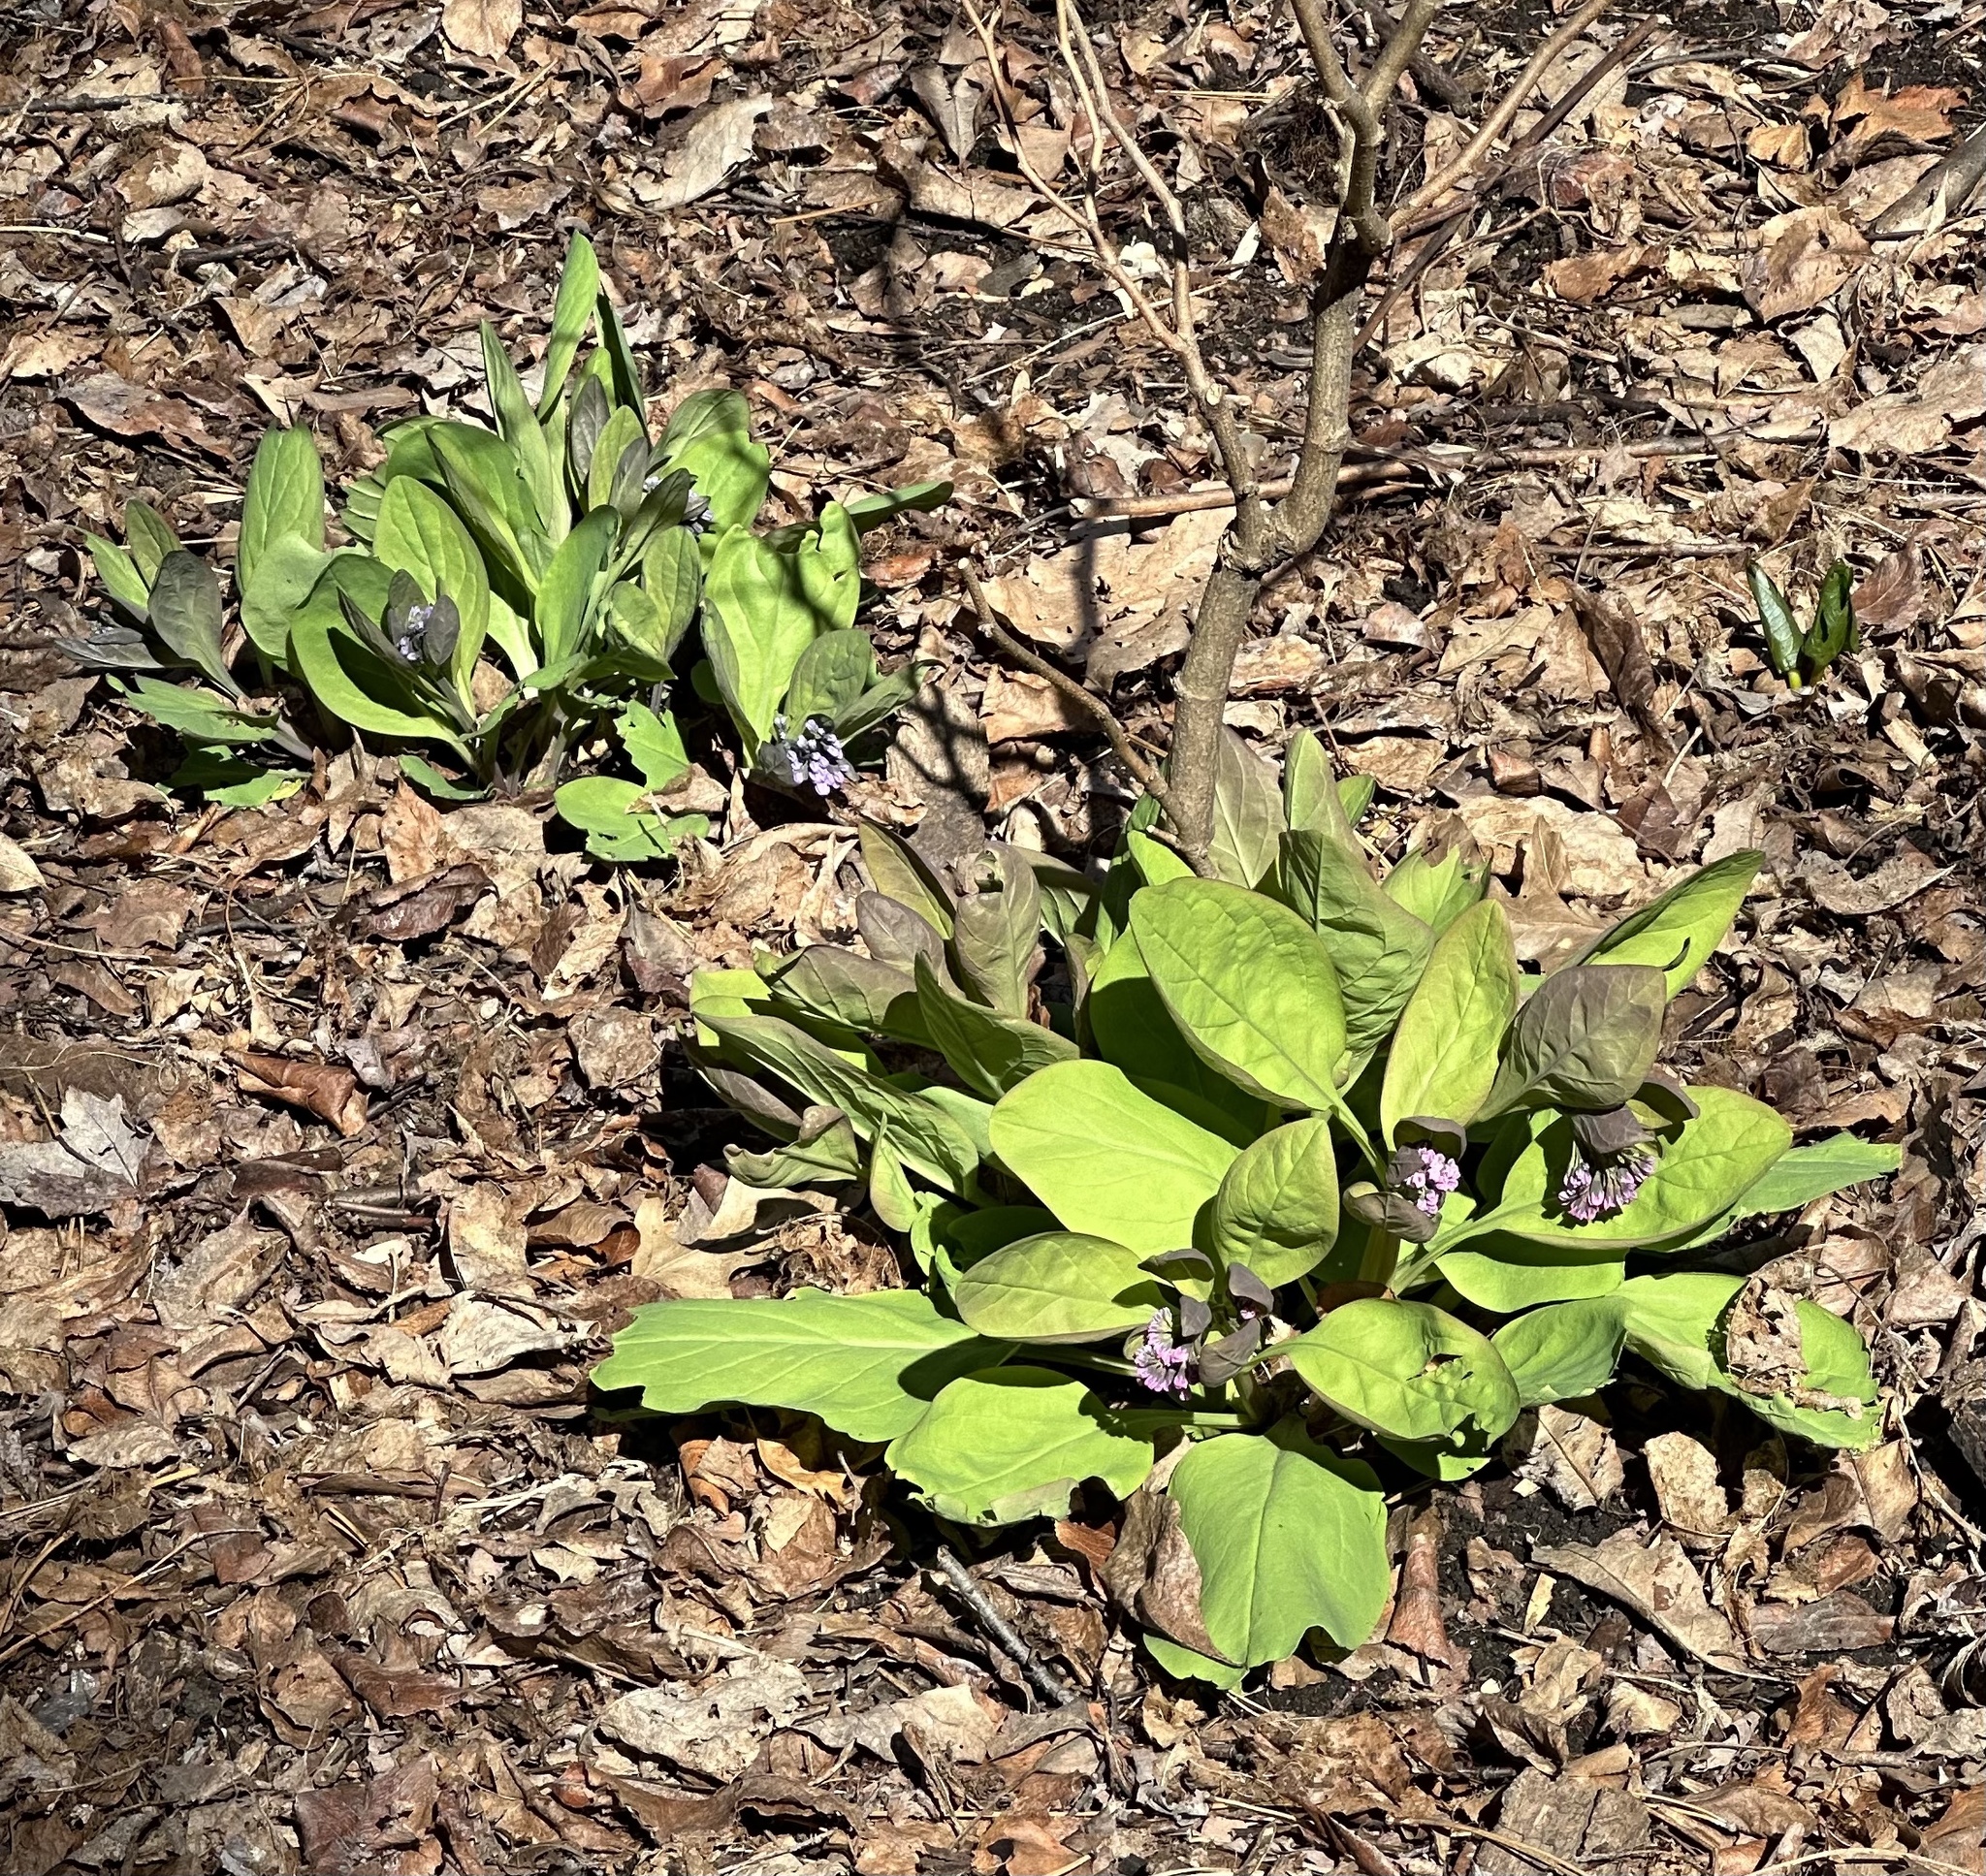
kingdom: Plantae
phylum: Tracheophyta
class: Magnoliopsida
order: Boraginales
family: Boraginaceae
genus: Mertensia
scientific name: Mertensia virginica
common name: Virginia bluebells
